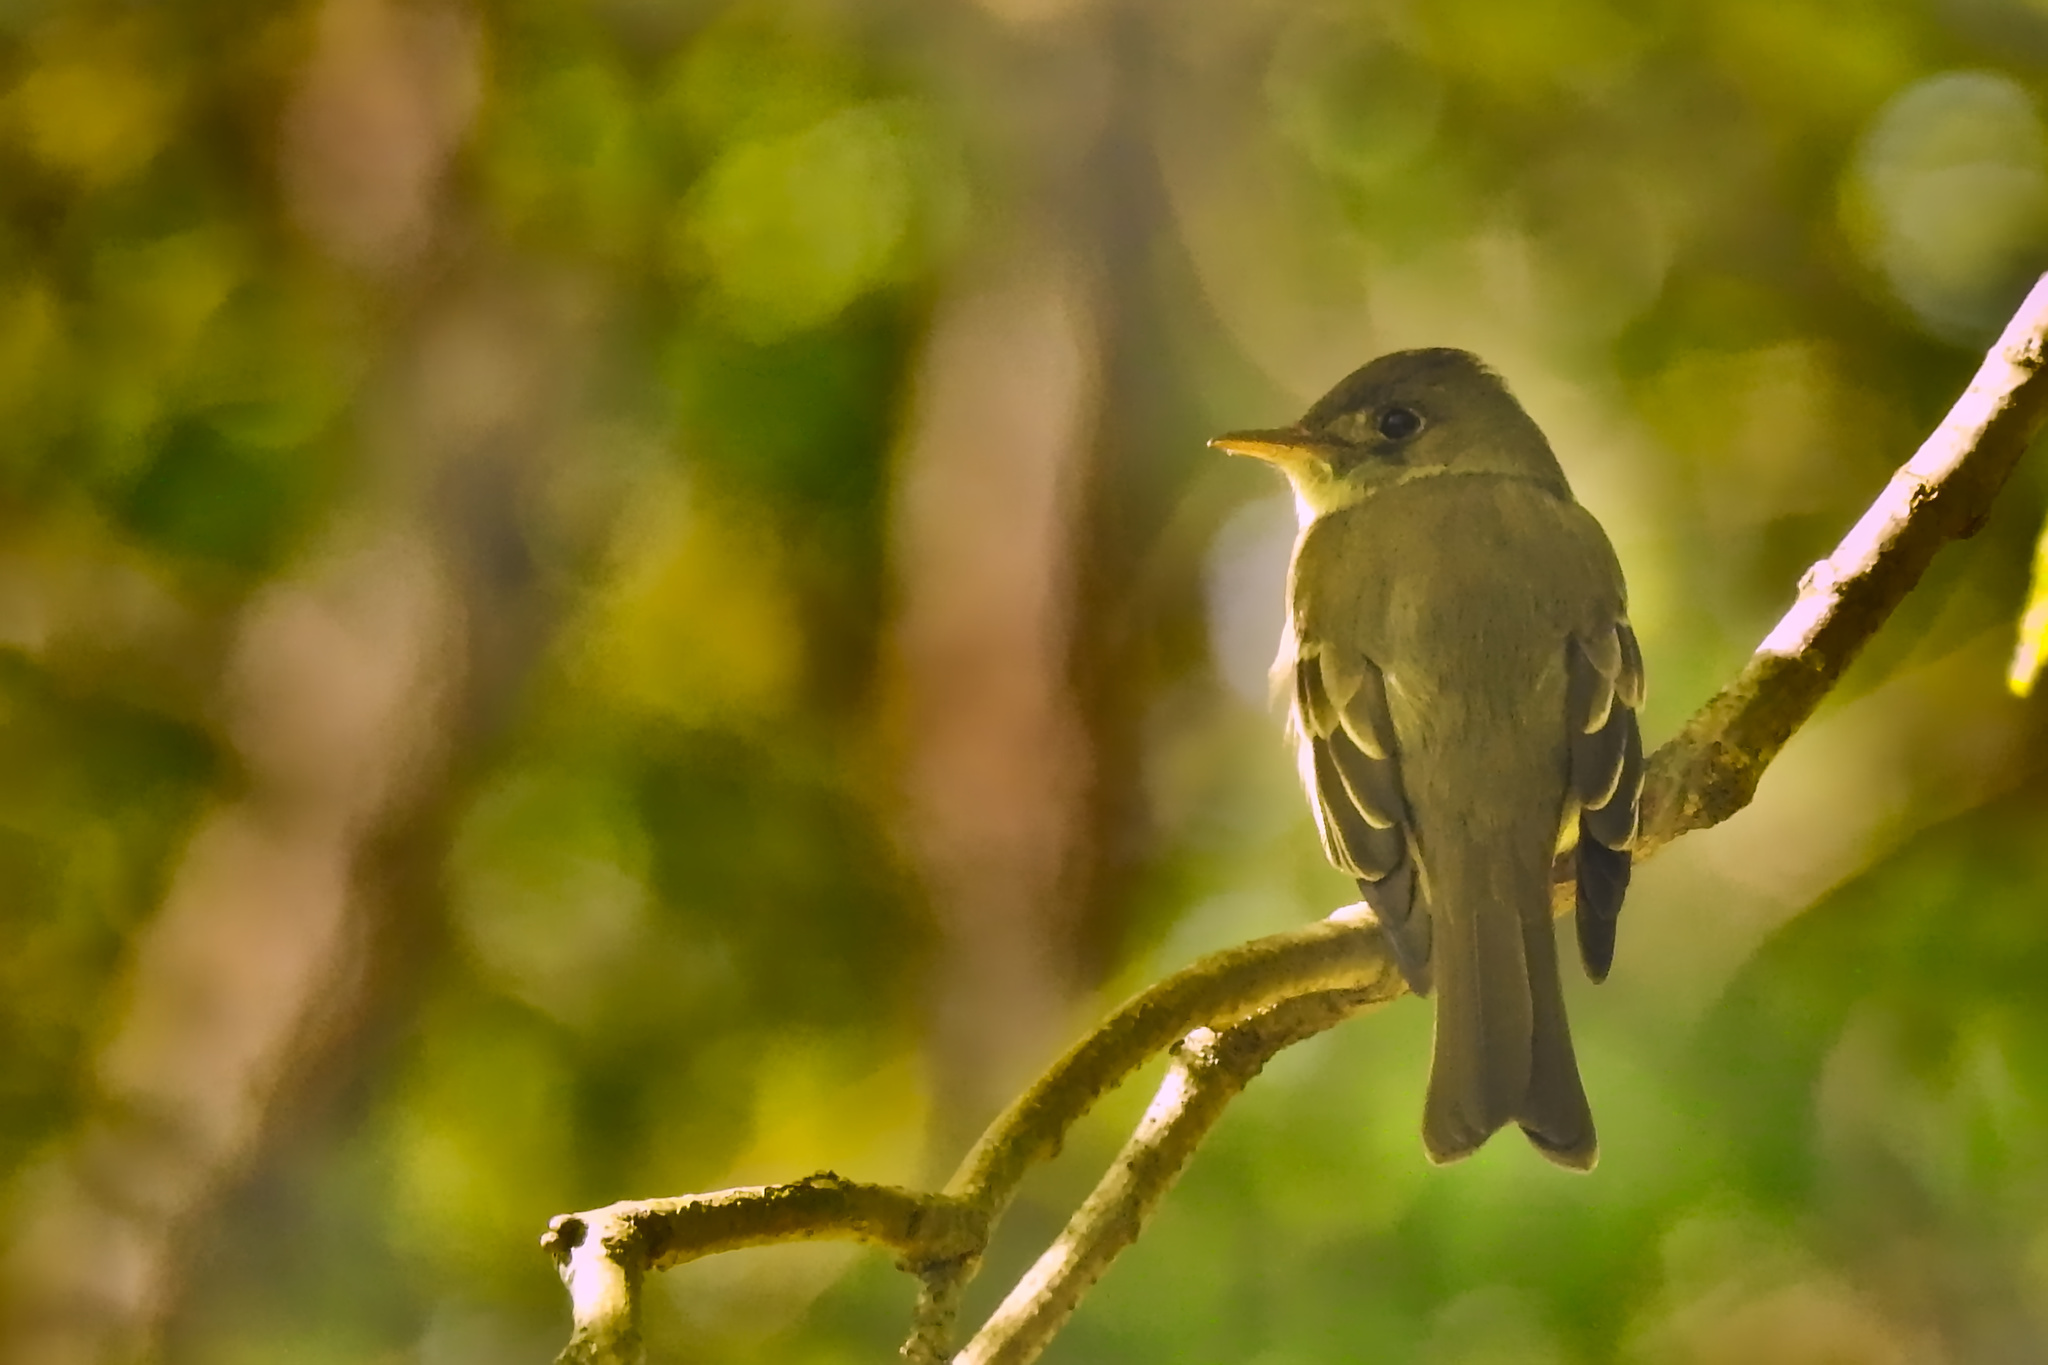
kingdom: Animalia
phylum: Chordata
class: Aves
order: Passeriformes
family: Tyrannidae
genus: Contopus
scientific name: Contopus virens
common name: Eastern wood-pewee
